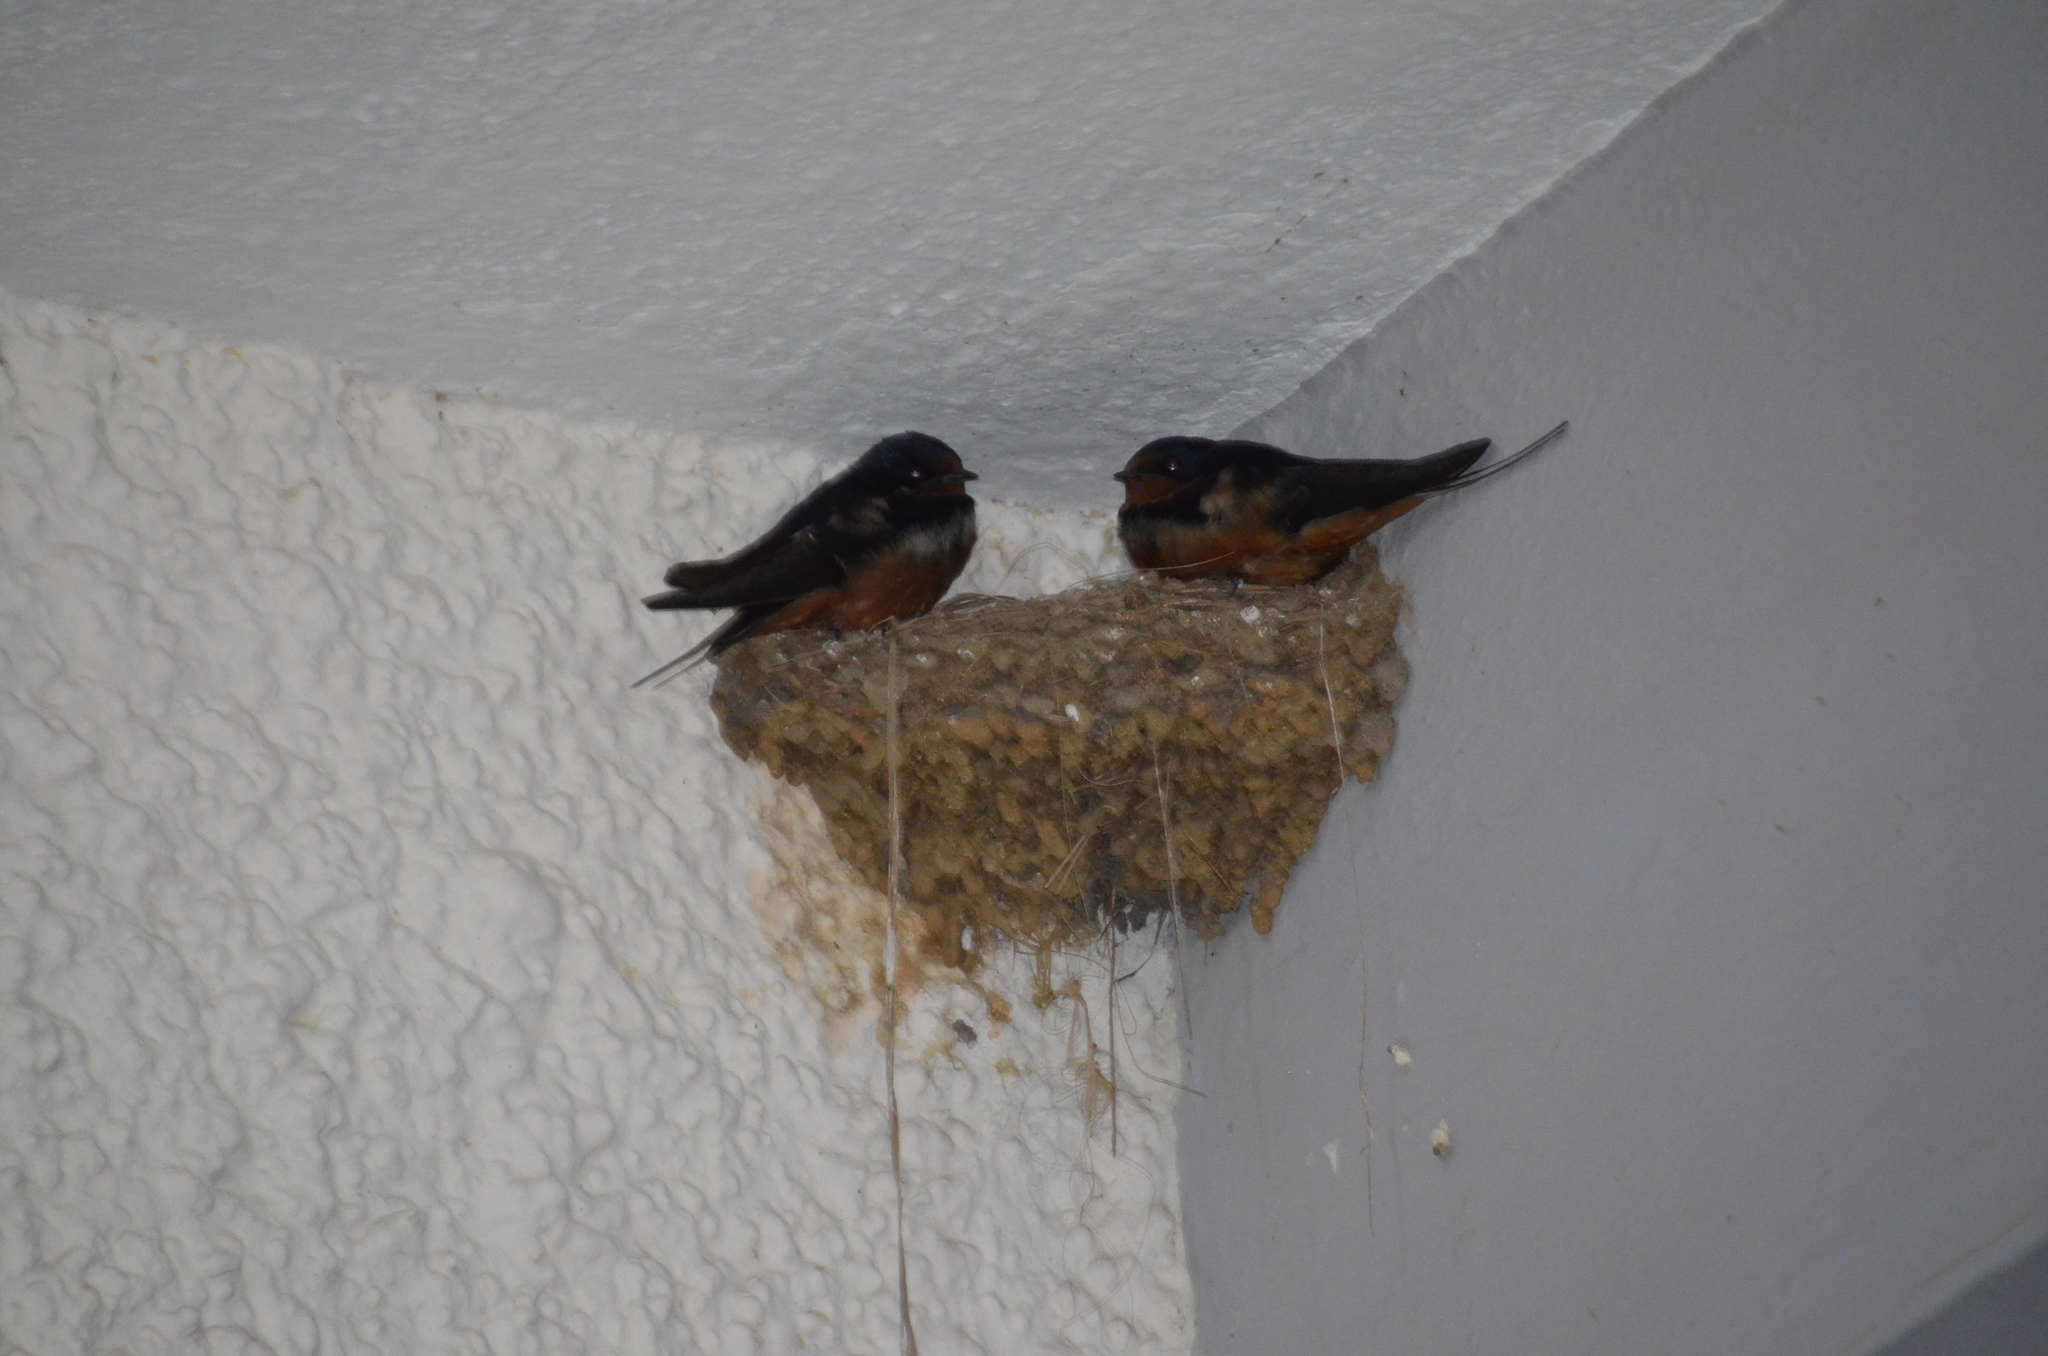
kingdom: Animalia
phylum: Chordata
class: Aves
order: Passeriformes
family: Hirundinidae
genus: Hirundo
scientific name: Hirundo rustica
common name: Barn swallow
